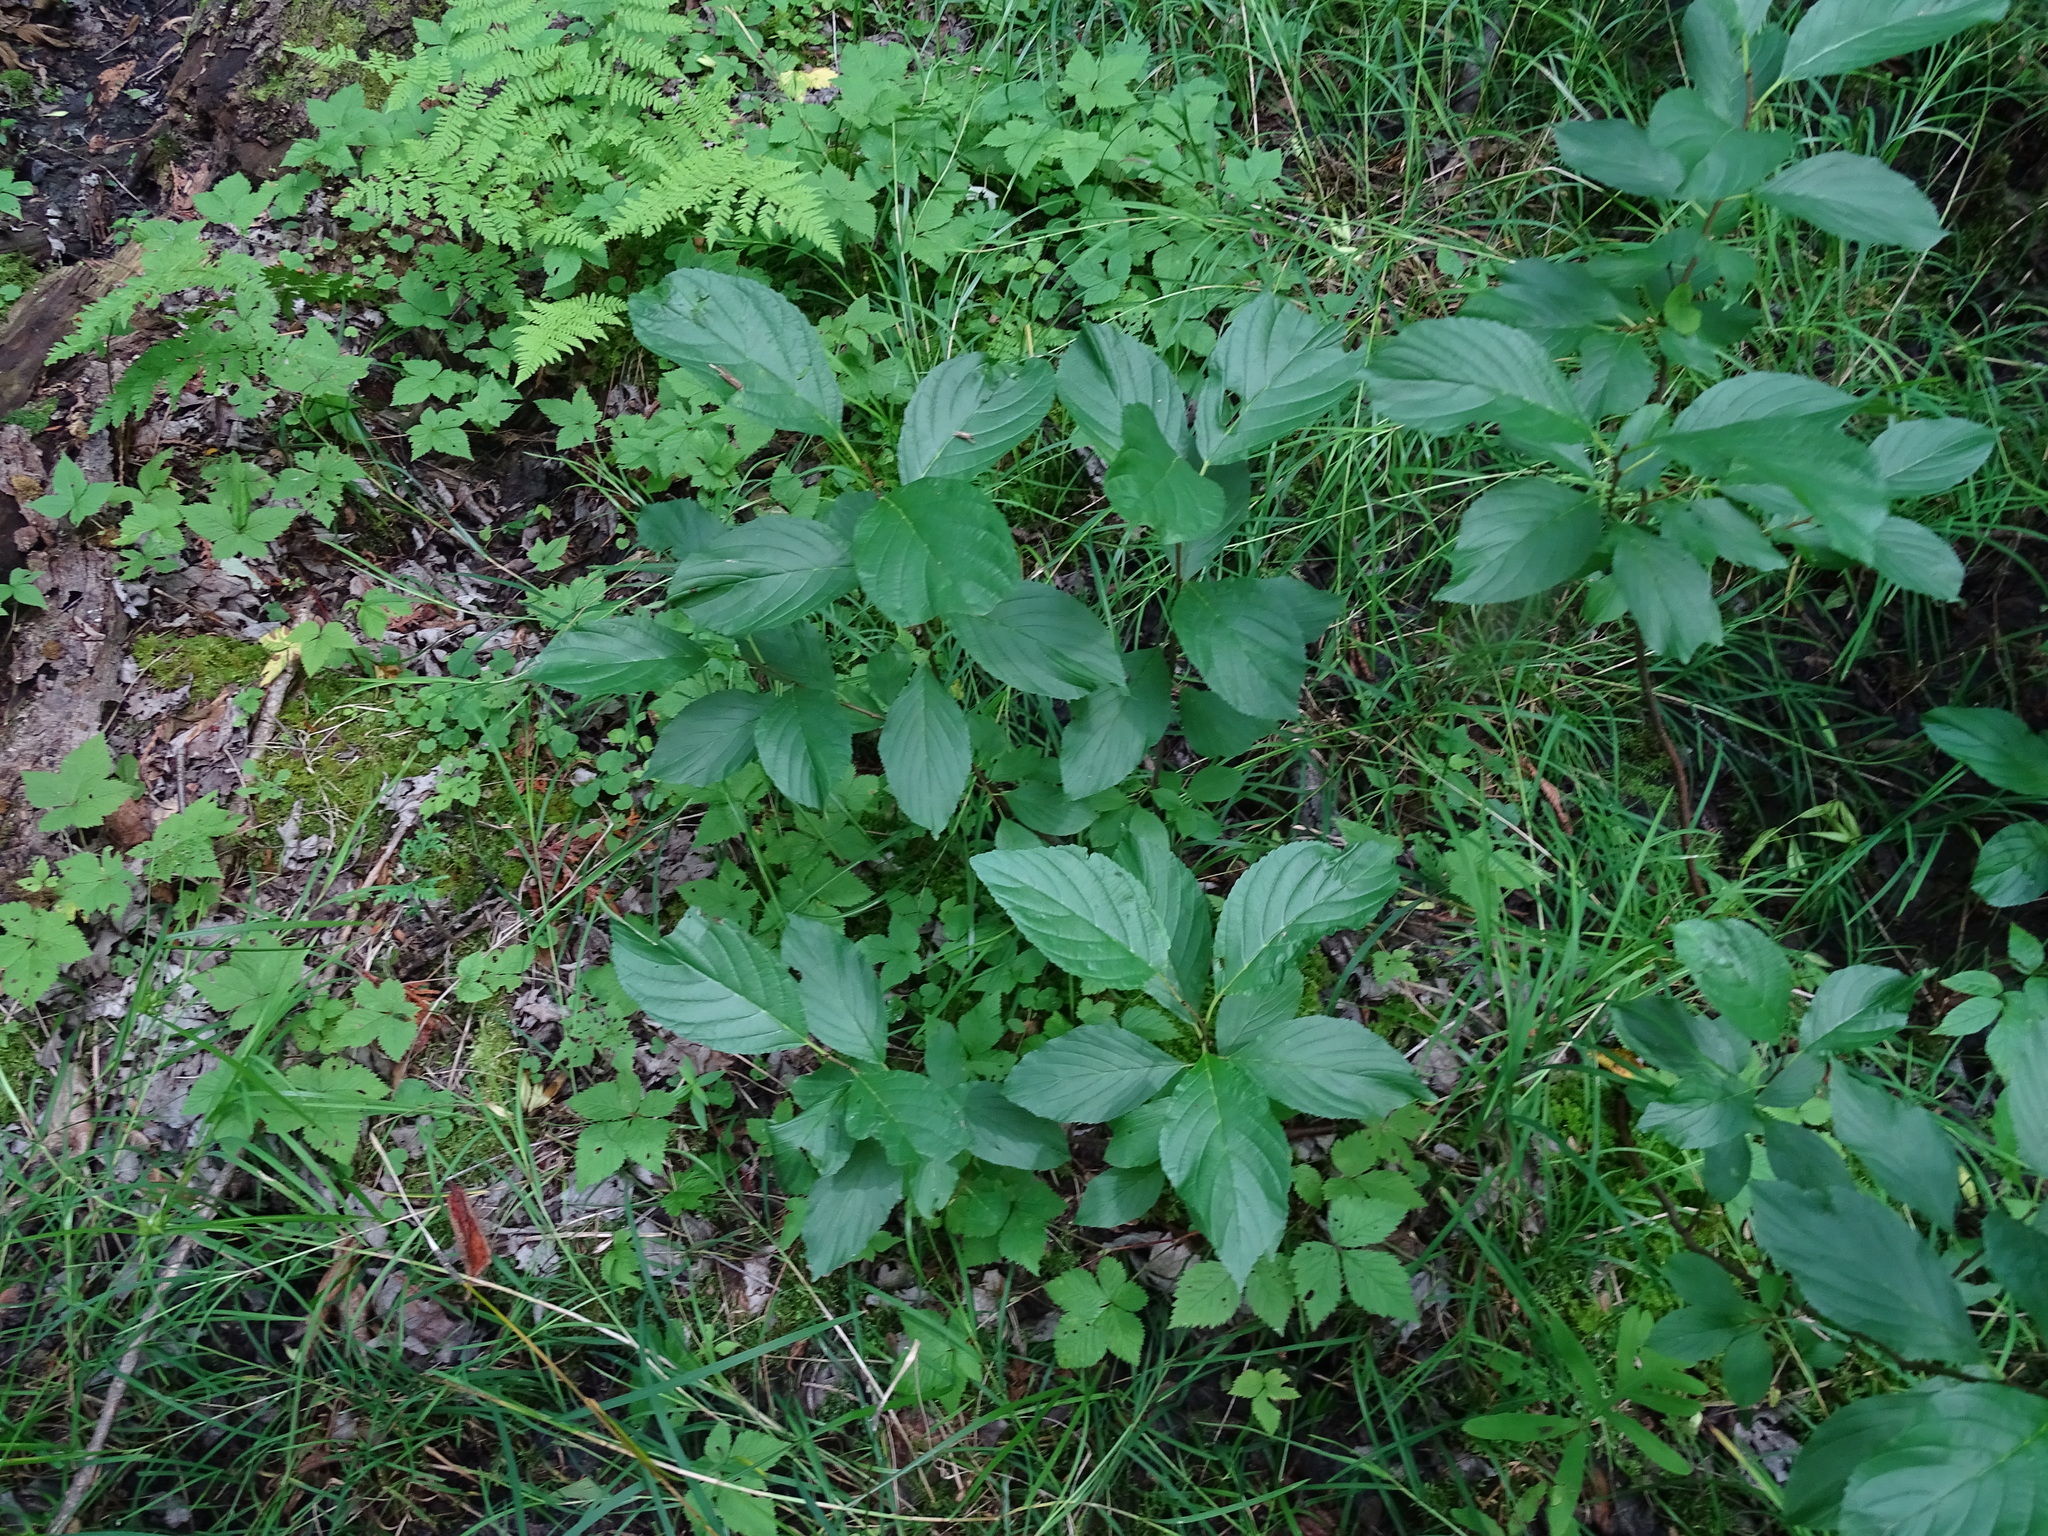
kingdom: Plantae
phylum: Tracheophyta
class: Magnoliopsida
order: Rosales
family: Rhamnaceae
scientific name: Rhamnaceae
